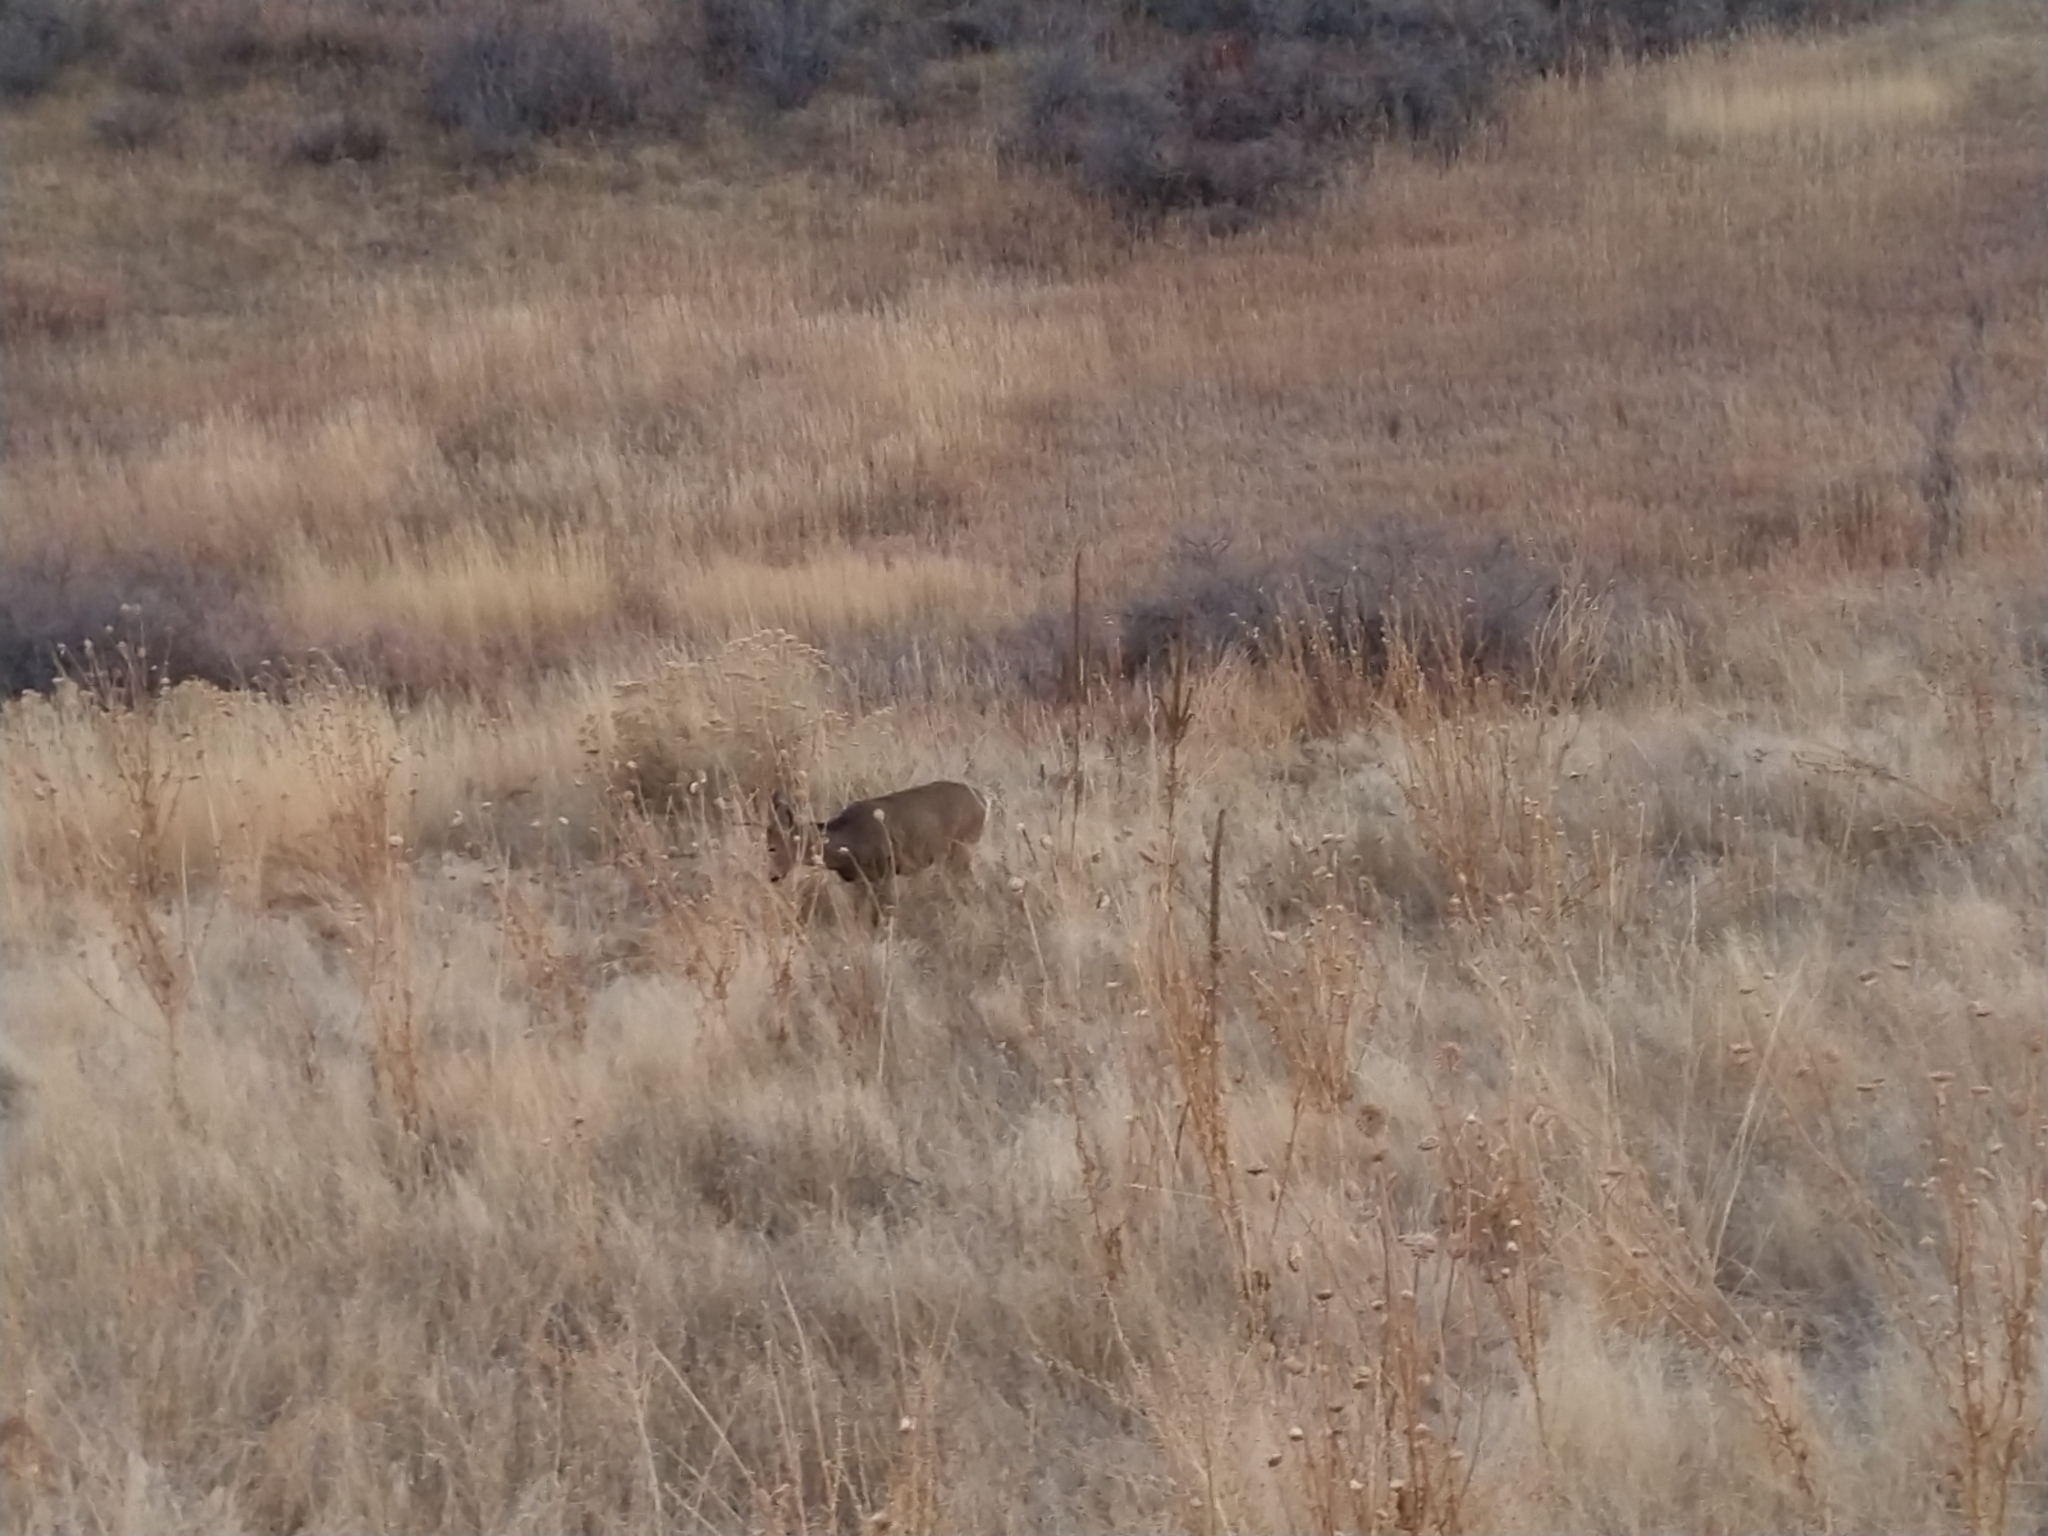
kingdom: Animalia
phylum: Chordata
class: Mammalia
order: Artiodactyla
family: Cervidae
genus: Odocoileus
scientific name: Odocoileus hemionus
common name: Mule deer
